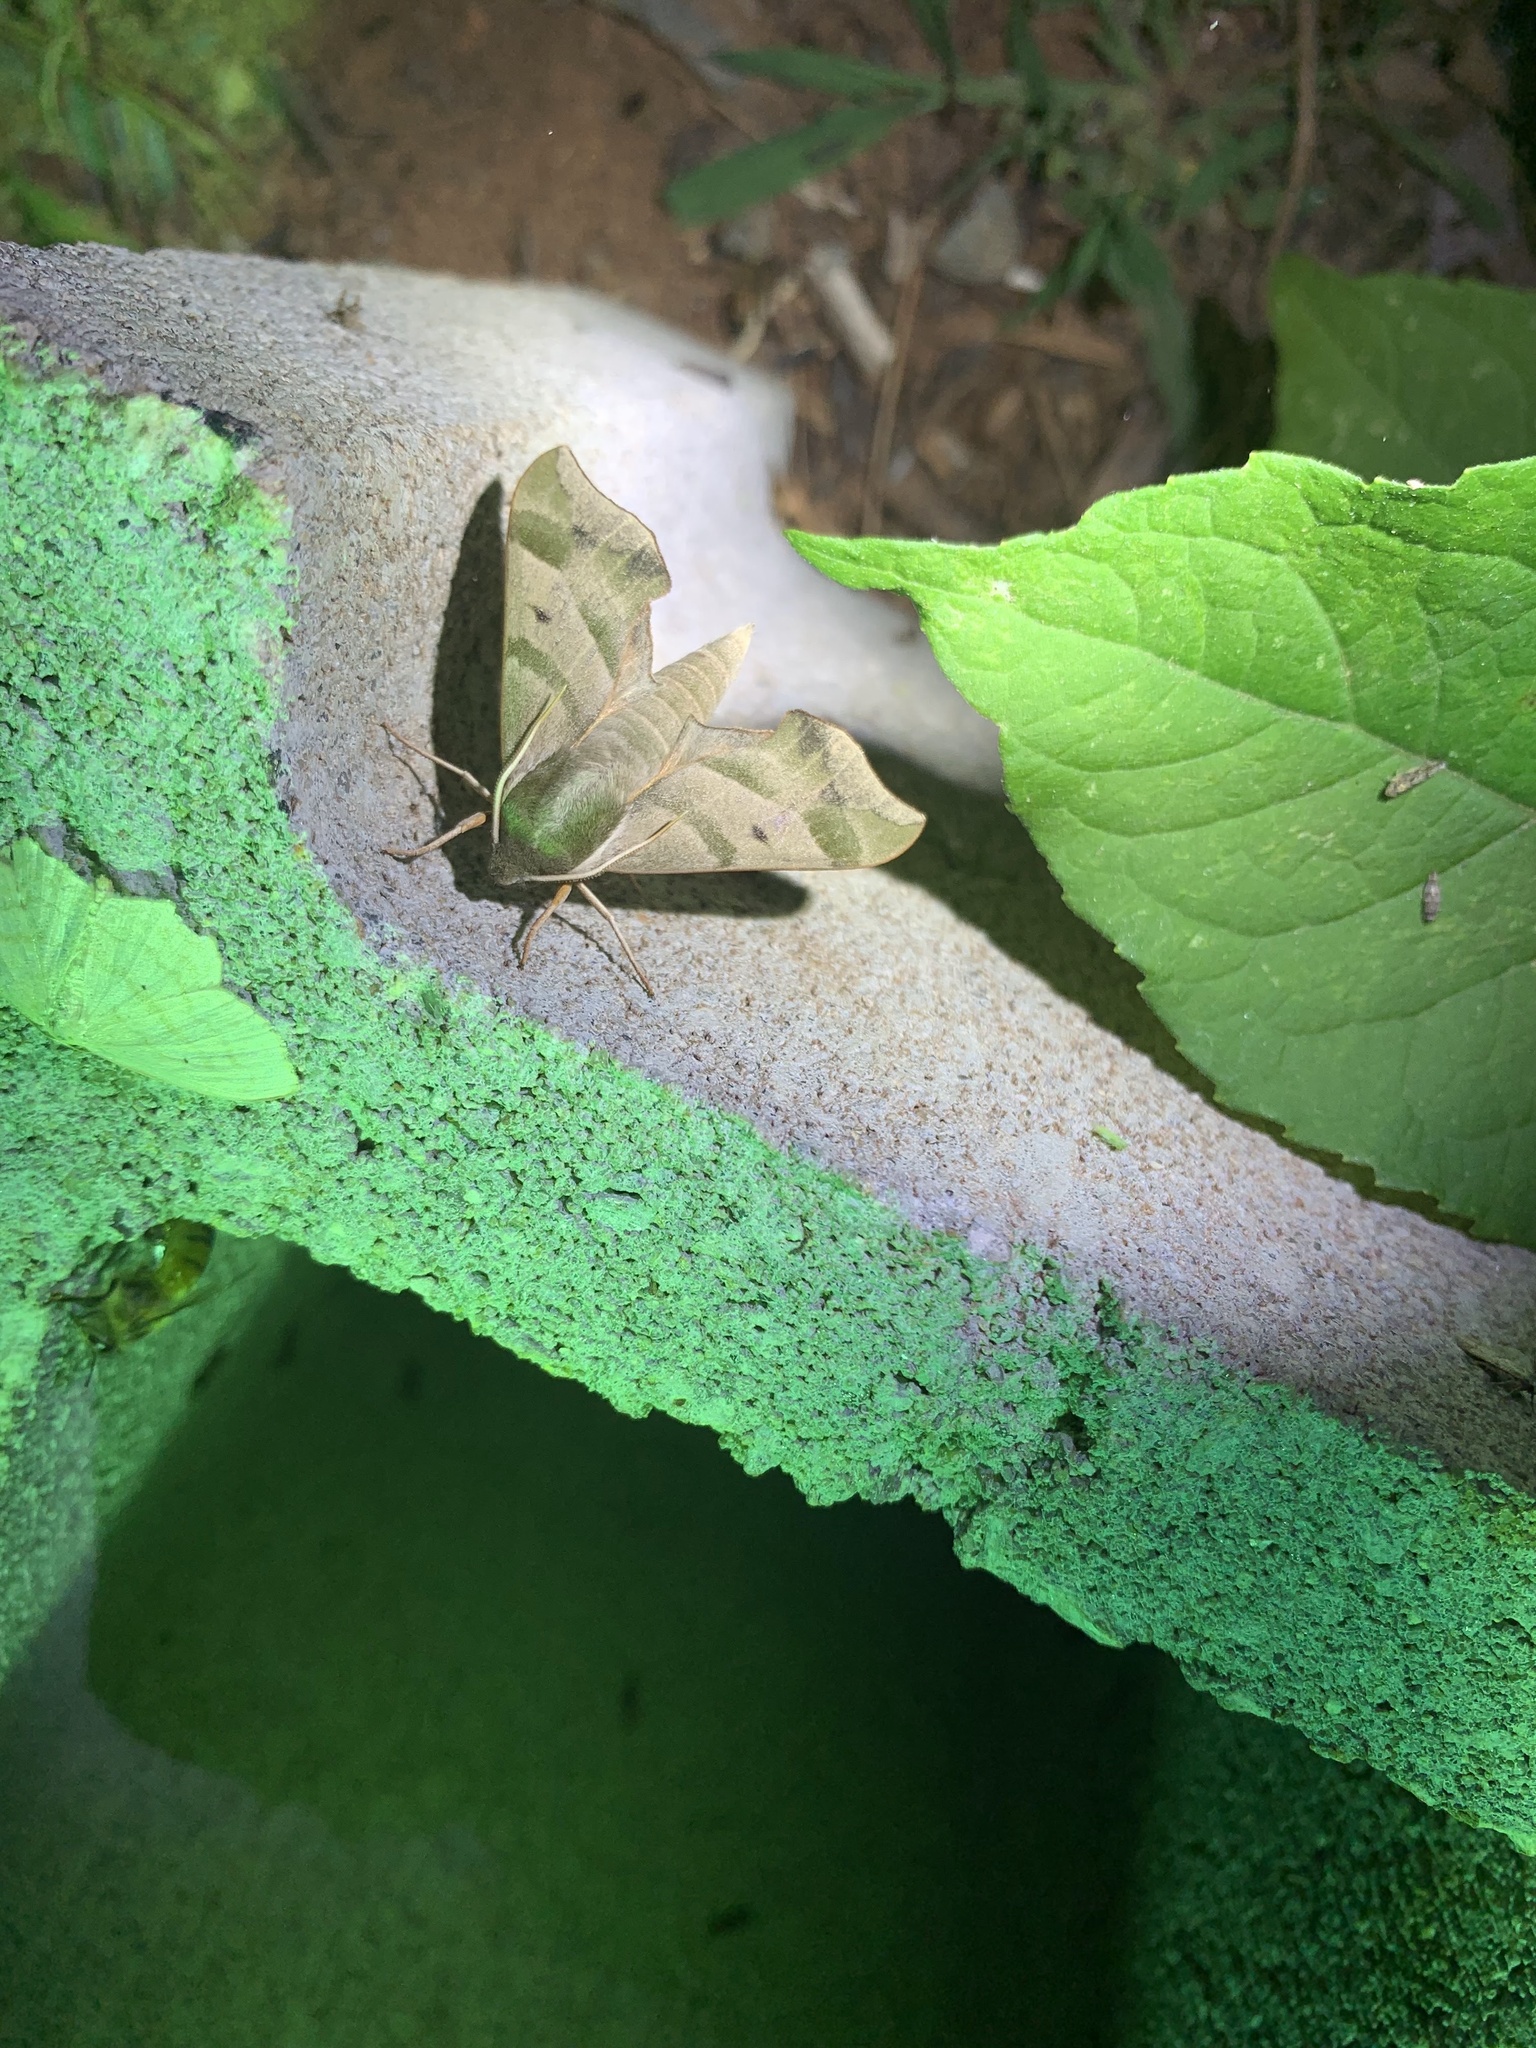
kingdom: Animalia
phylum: Arthropoda
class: Insecta
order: Lepidoptera
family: Sphingidae
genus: Darapsa
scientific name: Darapsa myron
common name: Hog sphinx
